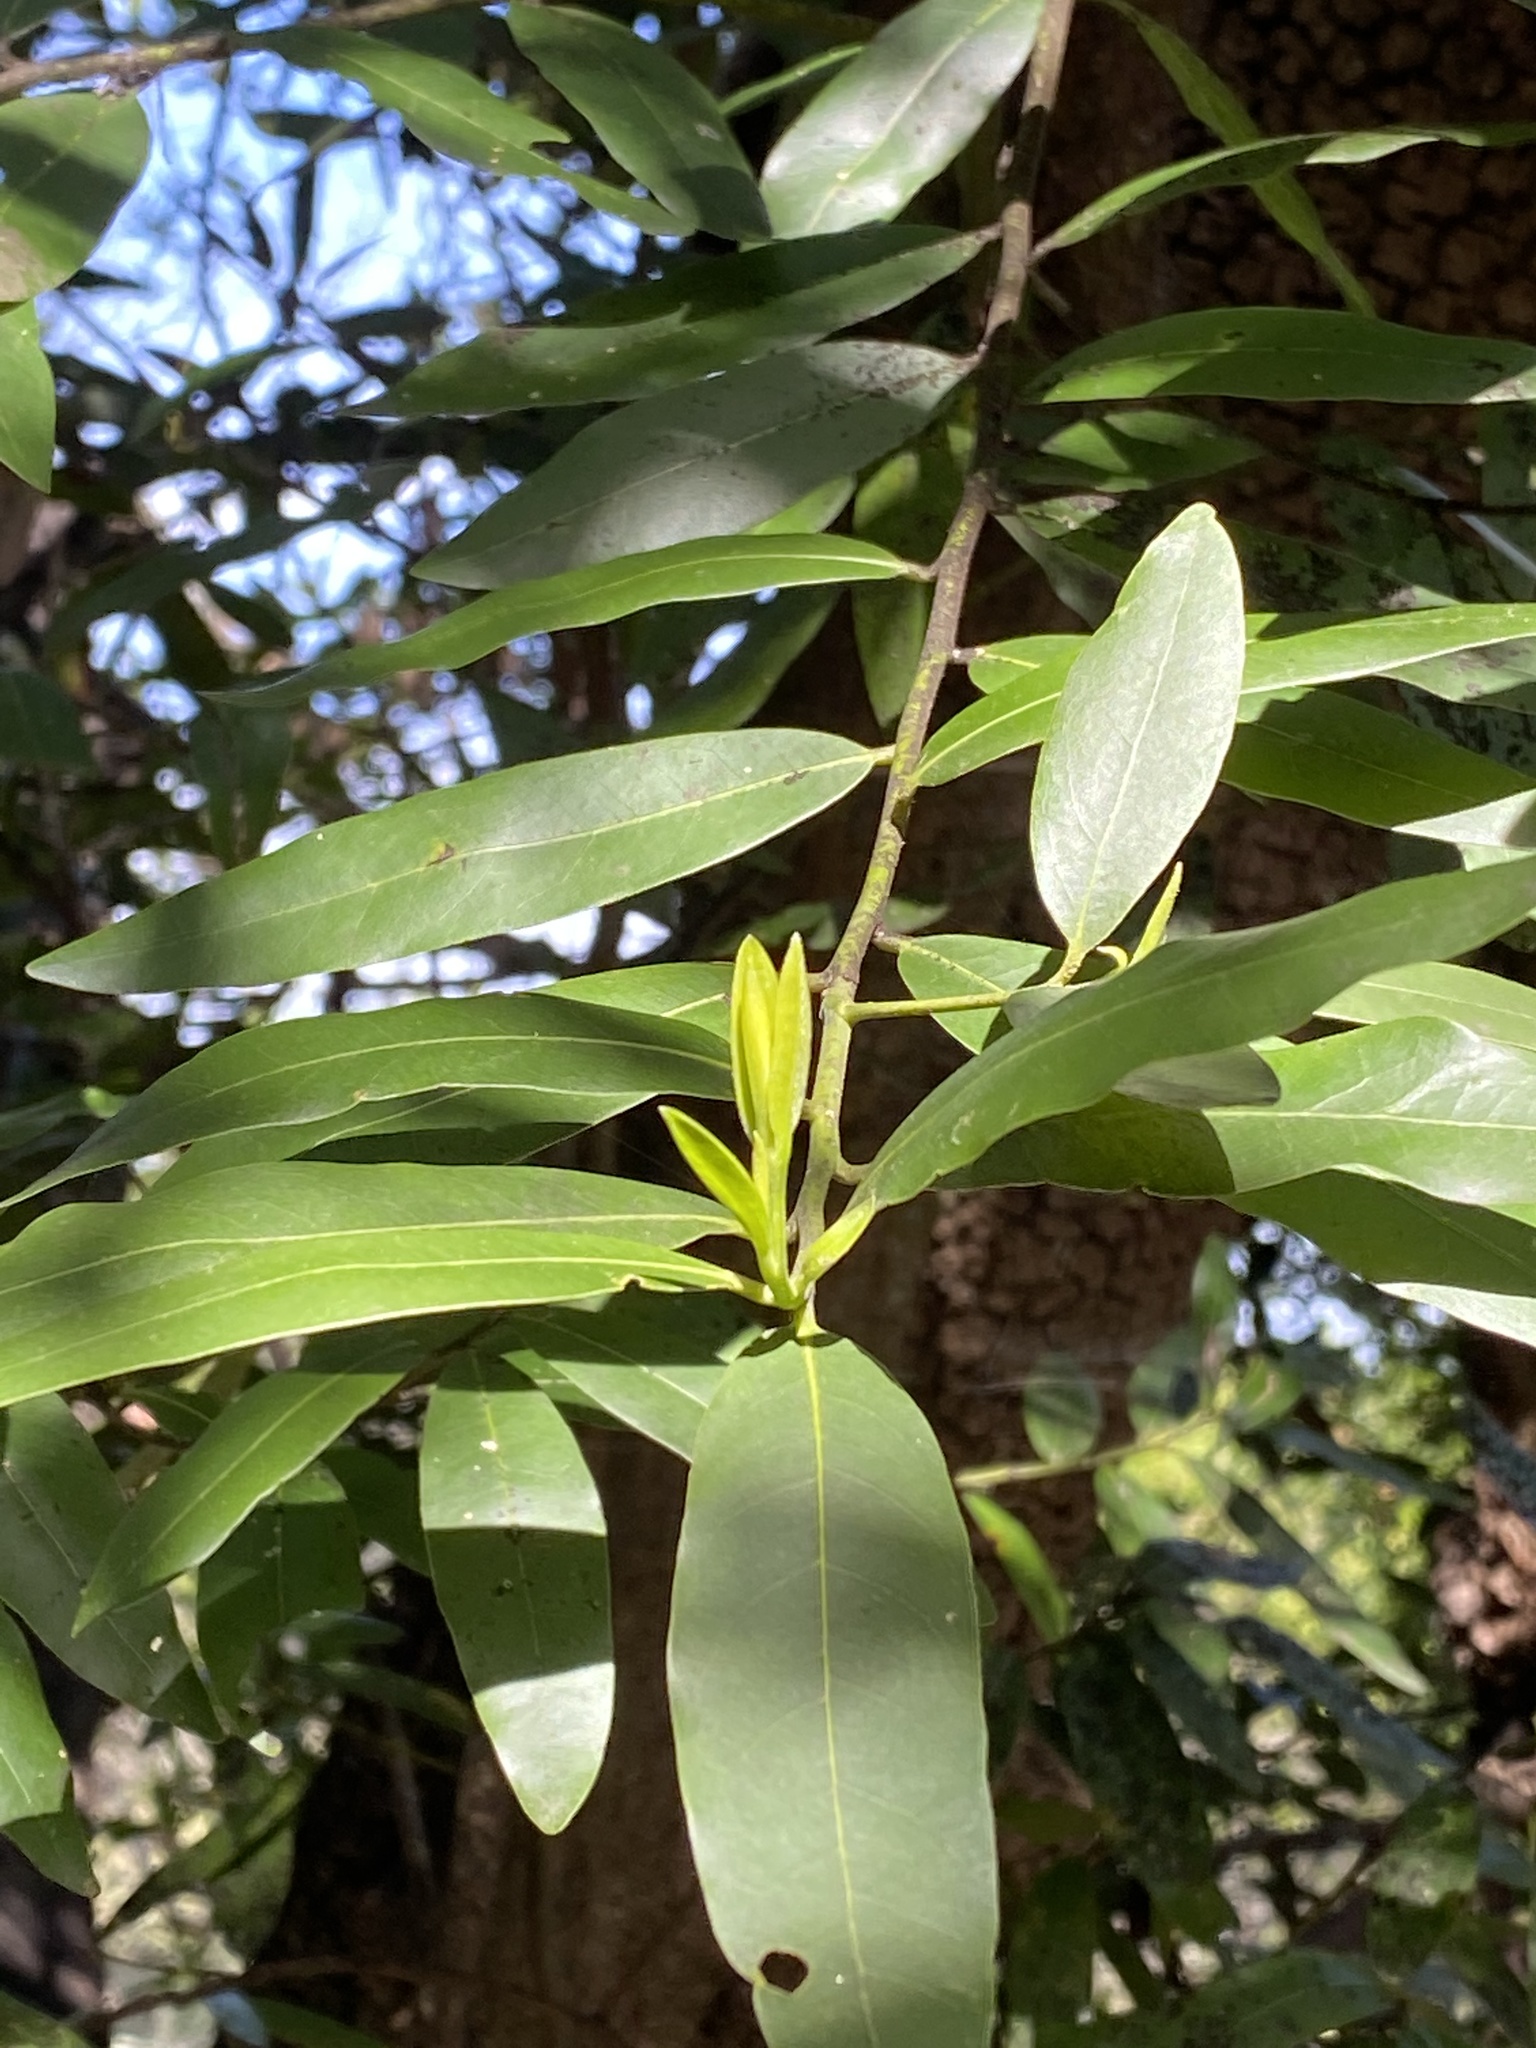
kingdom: Plantae
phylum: Tracheophyta
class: Magnoliopsida
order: Laurales
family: Lauraceae
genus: Umbellularia
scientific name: Umbellularia californica
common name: California bay
